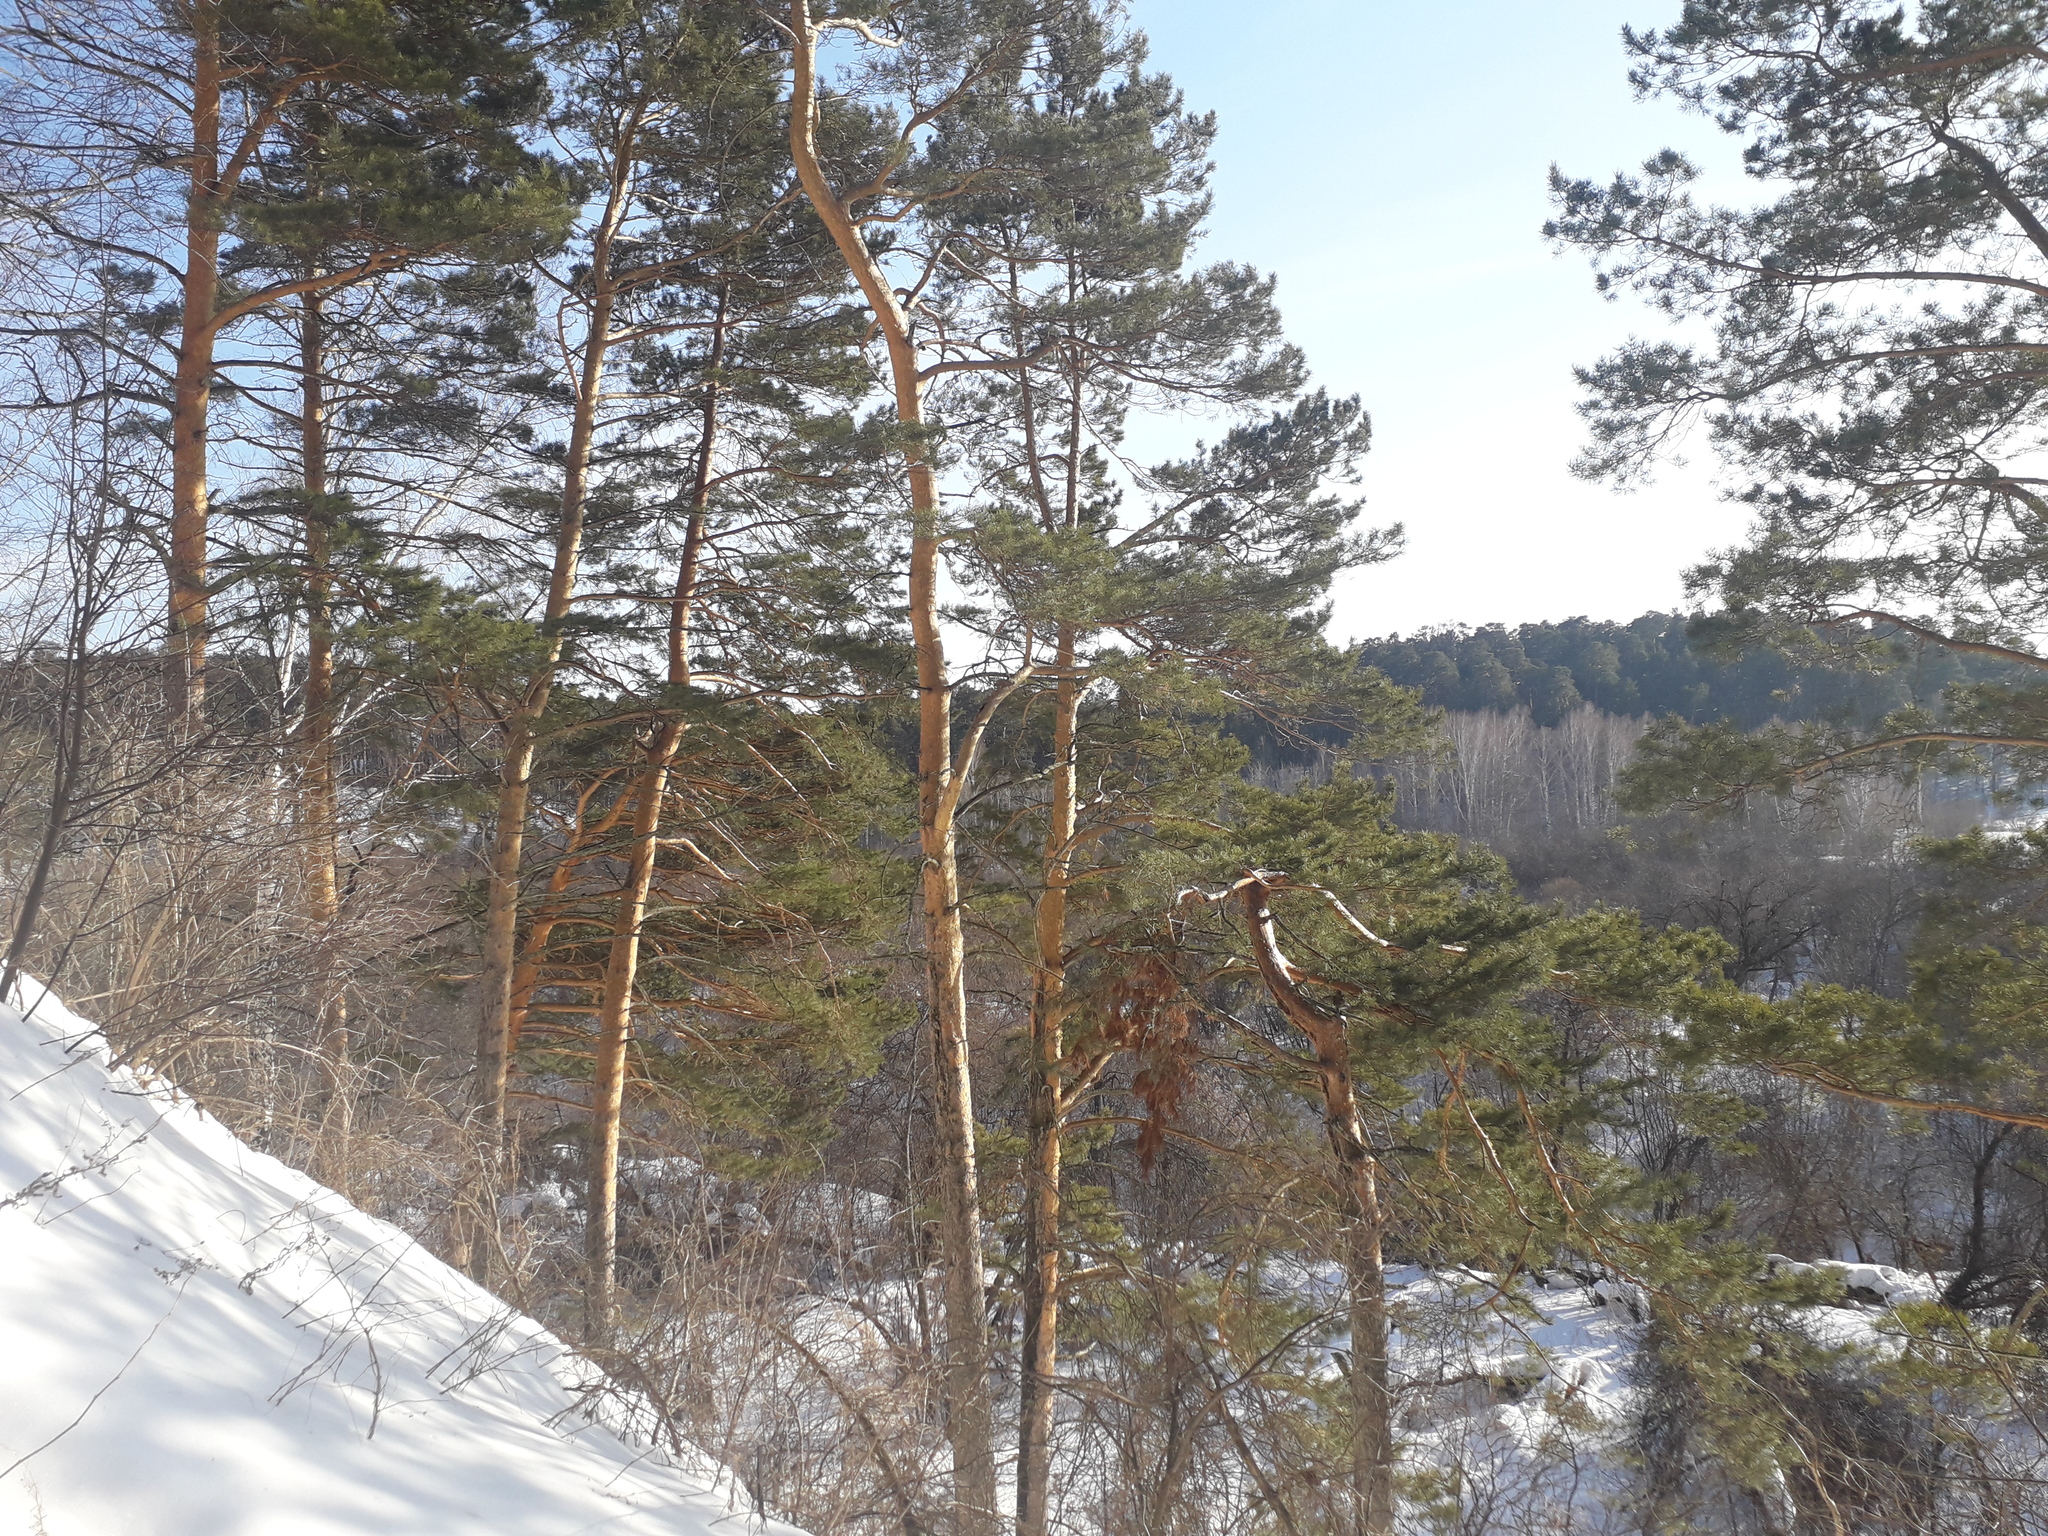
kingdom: Plantae
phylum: Tracheophyta
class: Pinopsida
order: Pinales
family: Pinaceae
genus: Pinus
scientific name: Pinus sylvestris
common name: Scots pine
